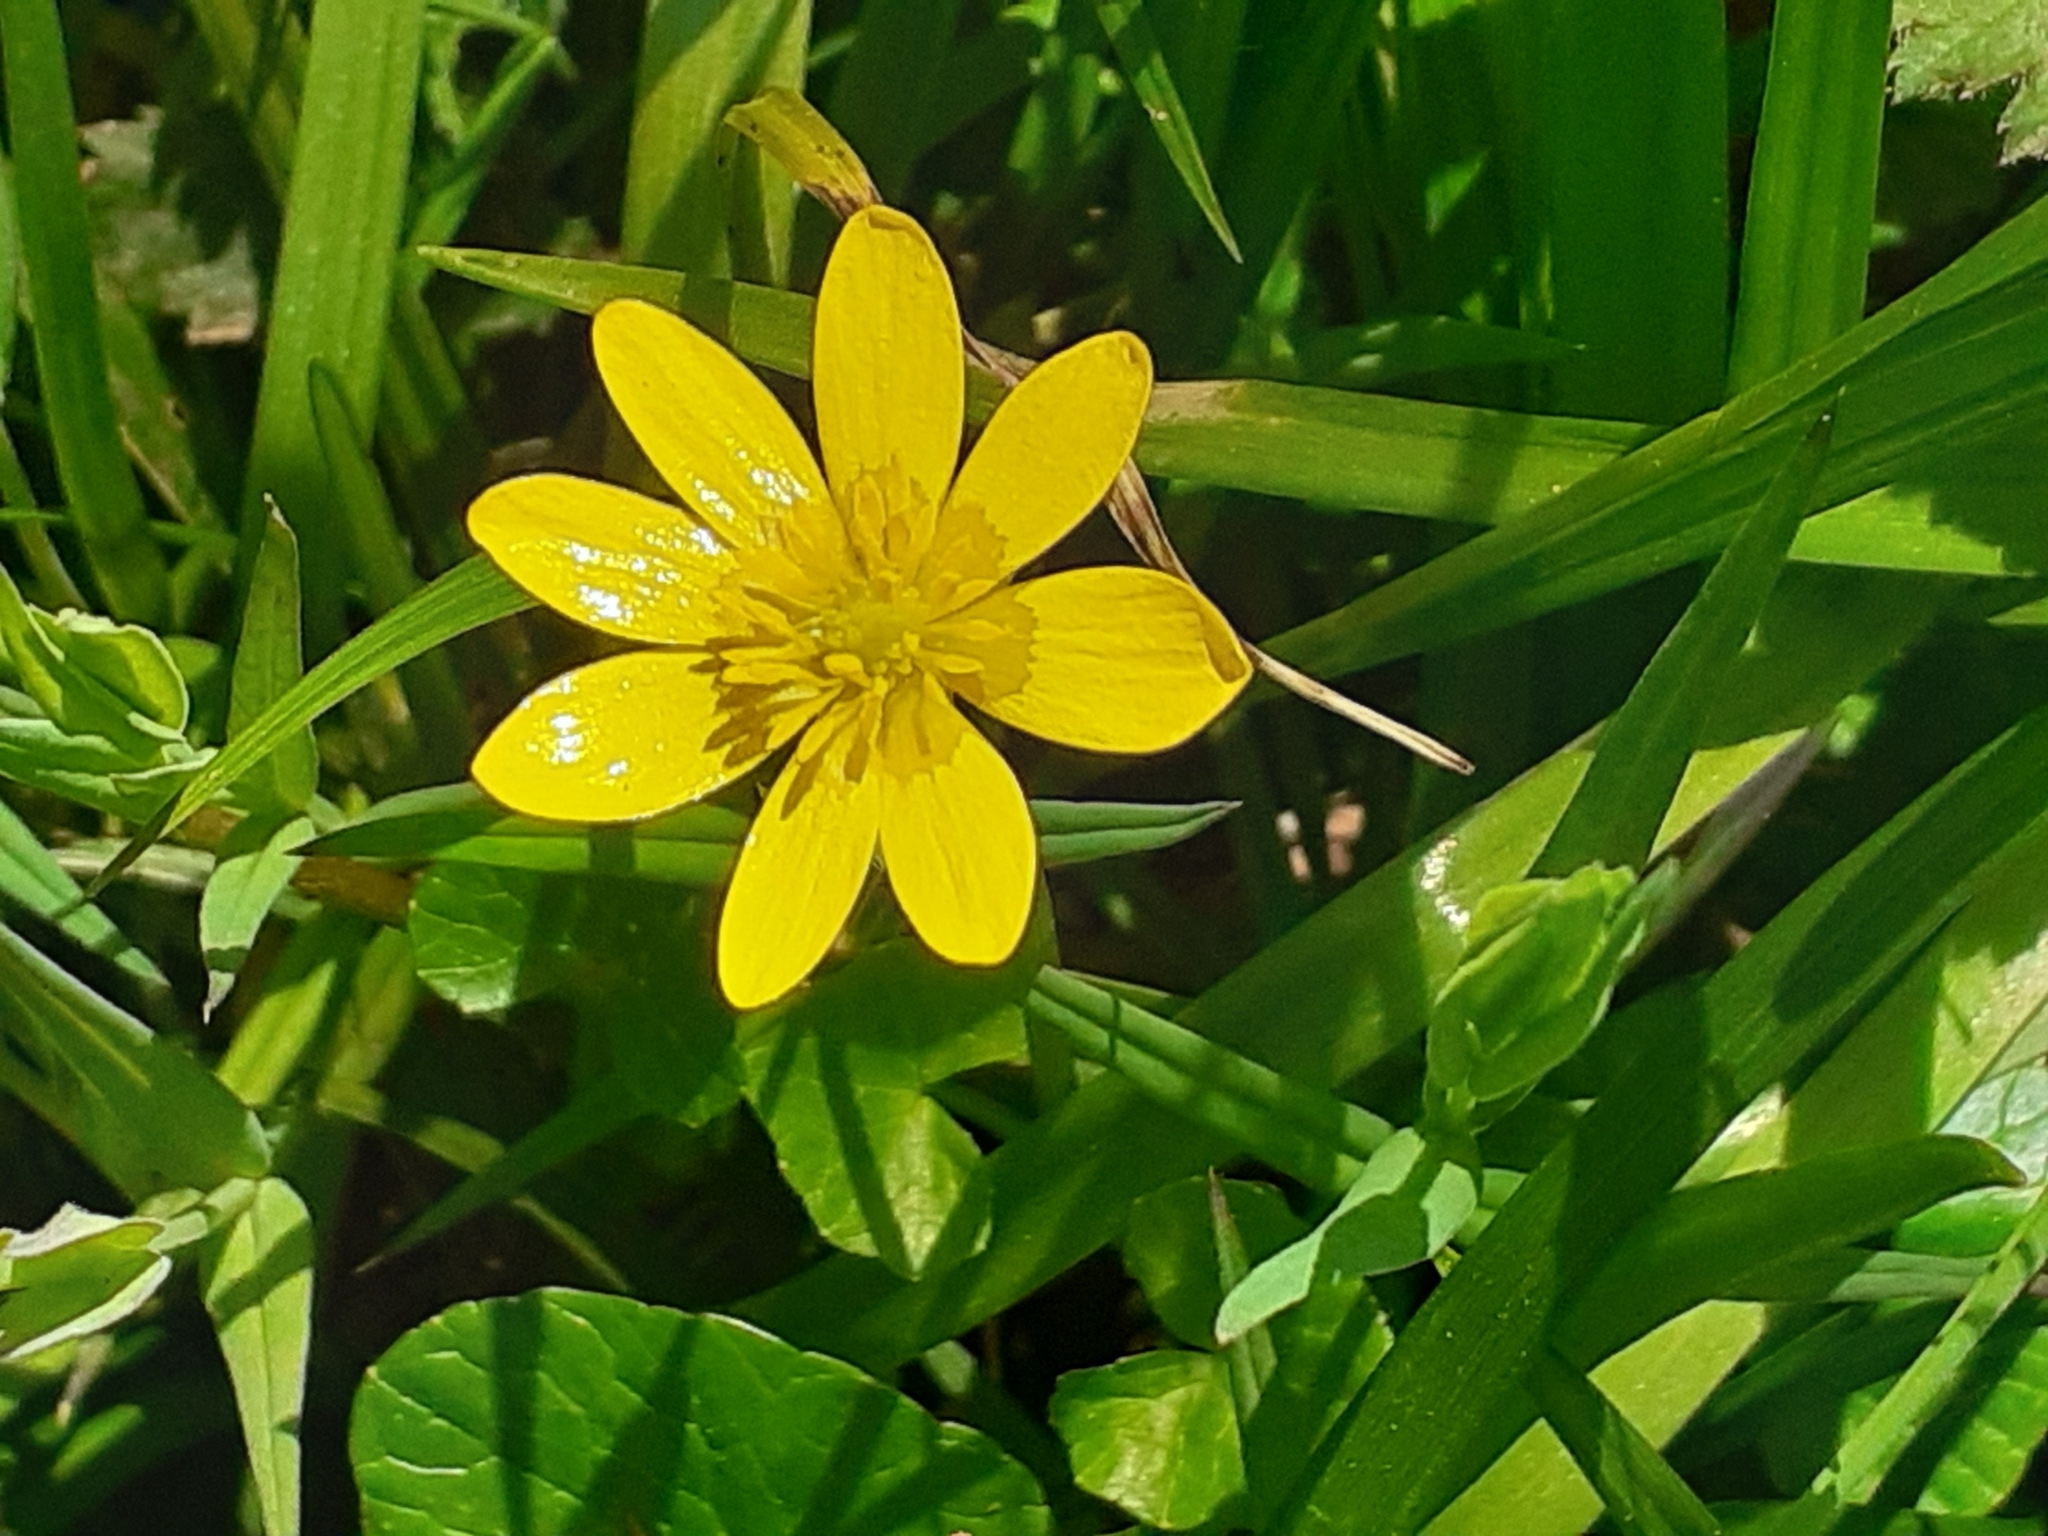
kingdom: Plantae
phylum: Tracheophyta
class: Magnoliopsida
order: Ranunculales
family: Ranunculaceae
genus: Ficaria
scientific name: Ficaria verna
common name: Lesser celandine
